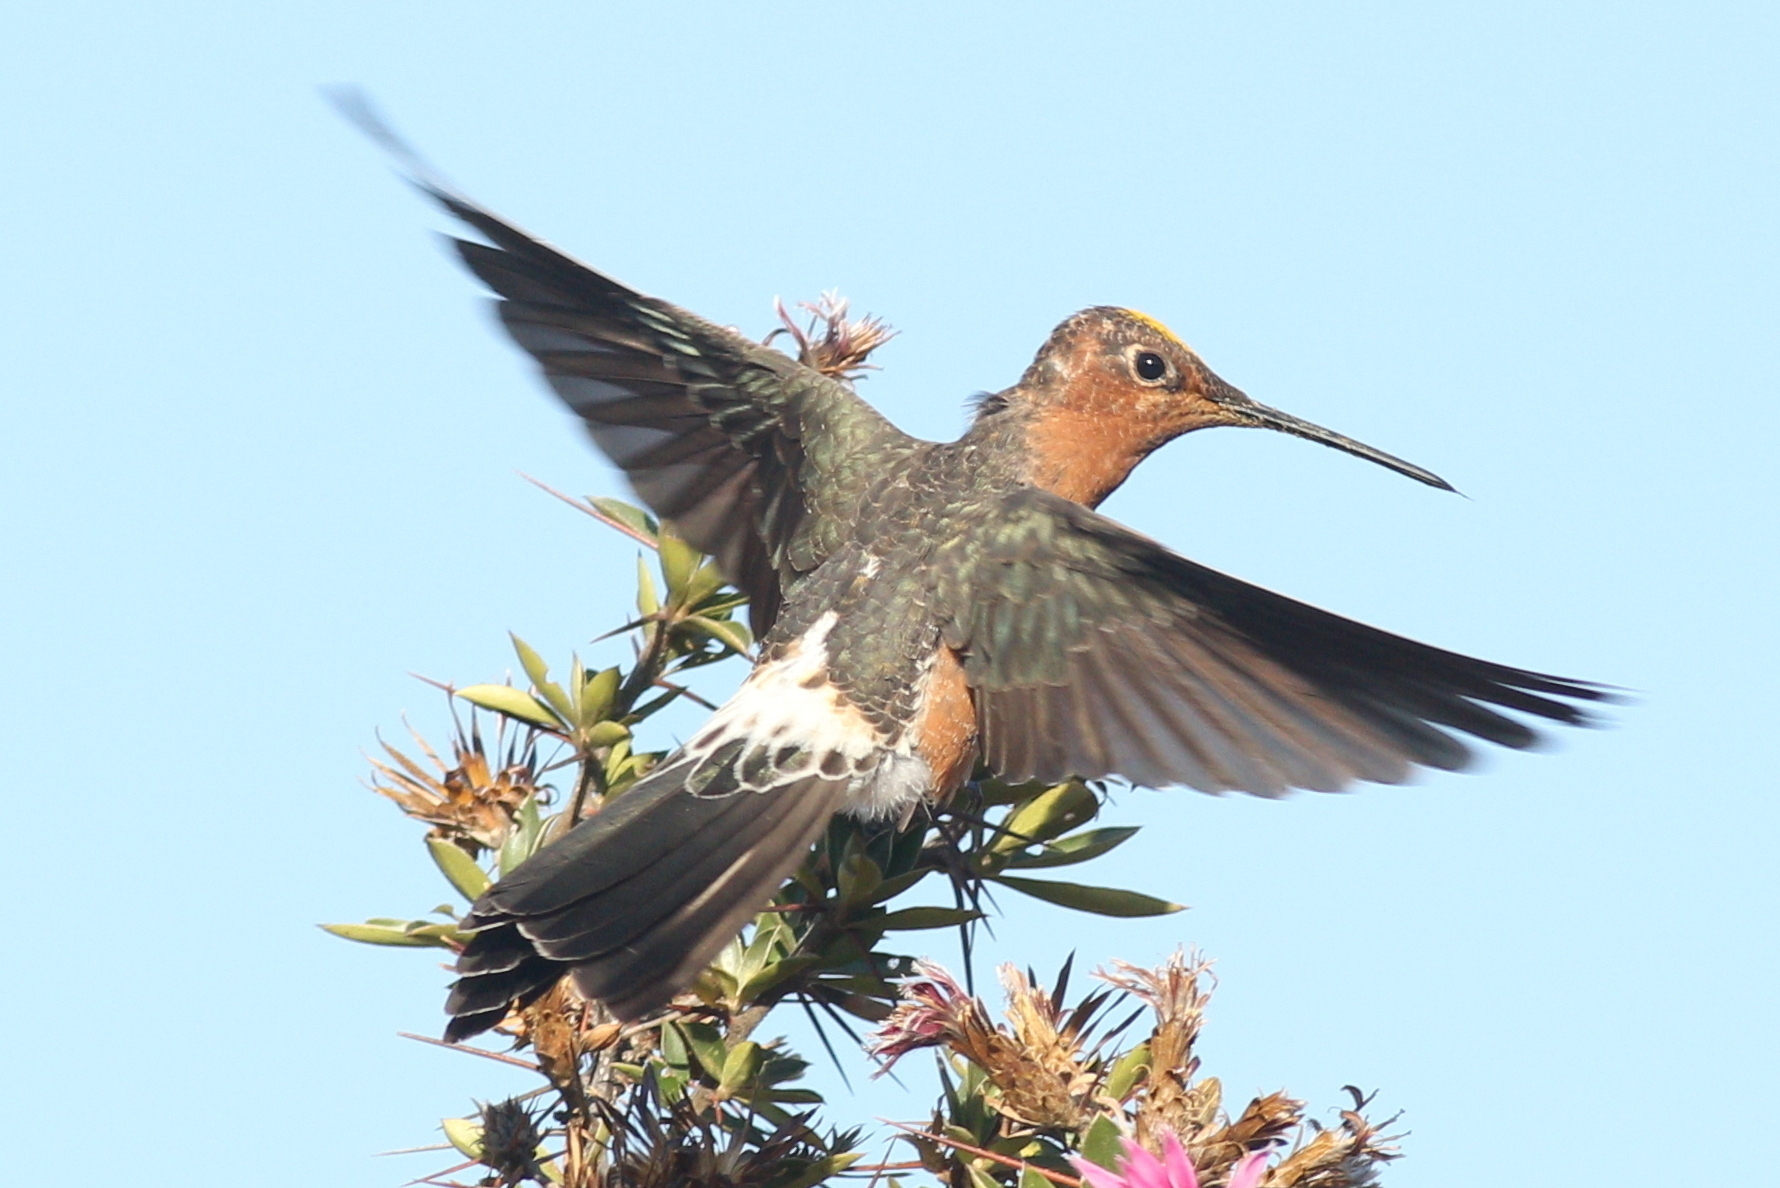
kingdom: Animalia
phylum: Chordata
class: Aves
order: Apodiformes
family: Trochilidae
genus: Patagona
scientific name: Patagona gigas
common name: Giant hummingbird
